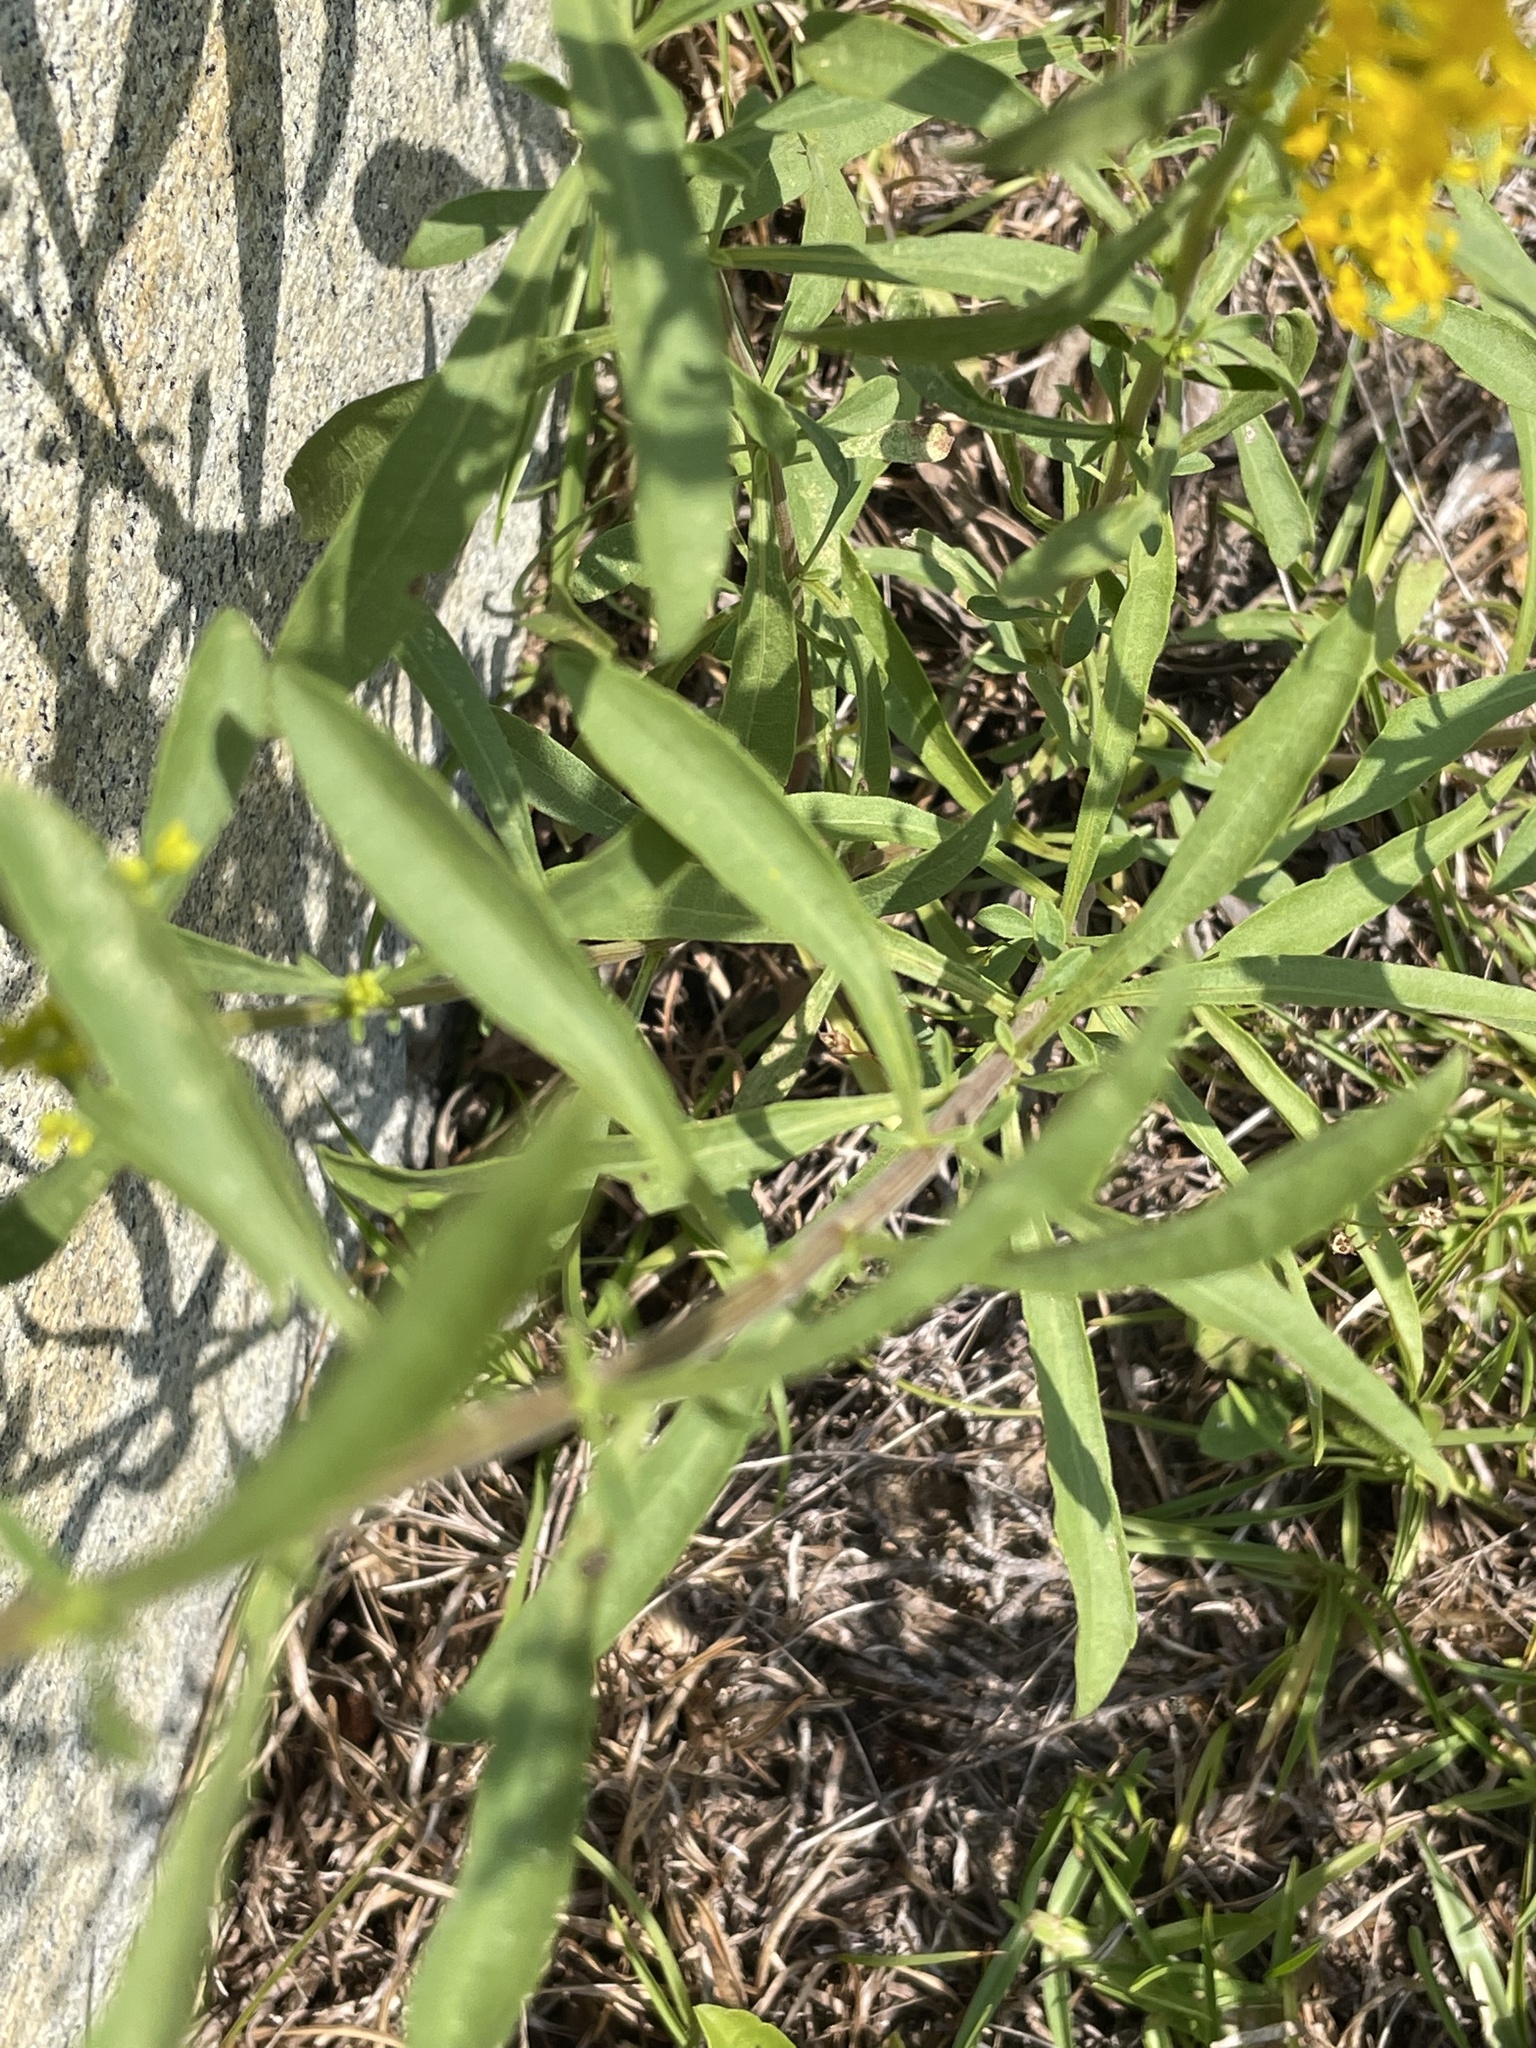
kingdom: Plantae
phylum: Tracheophyta
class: Magnoliopsida
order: Asterales
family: Asteraceae
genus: Solidago
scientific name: Solidago nemoralis
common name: Grey goldenrod
